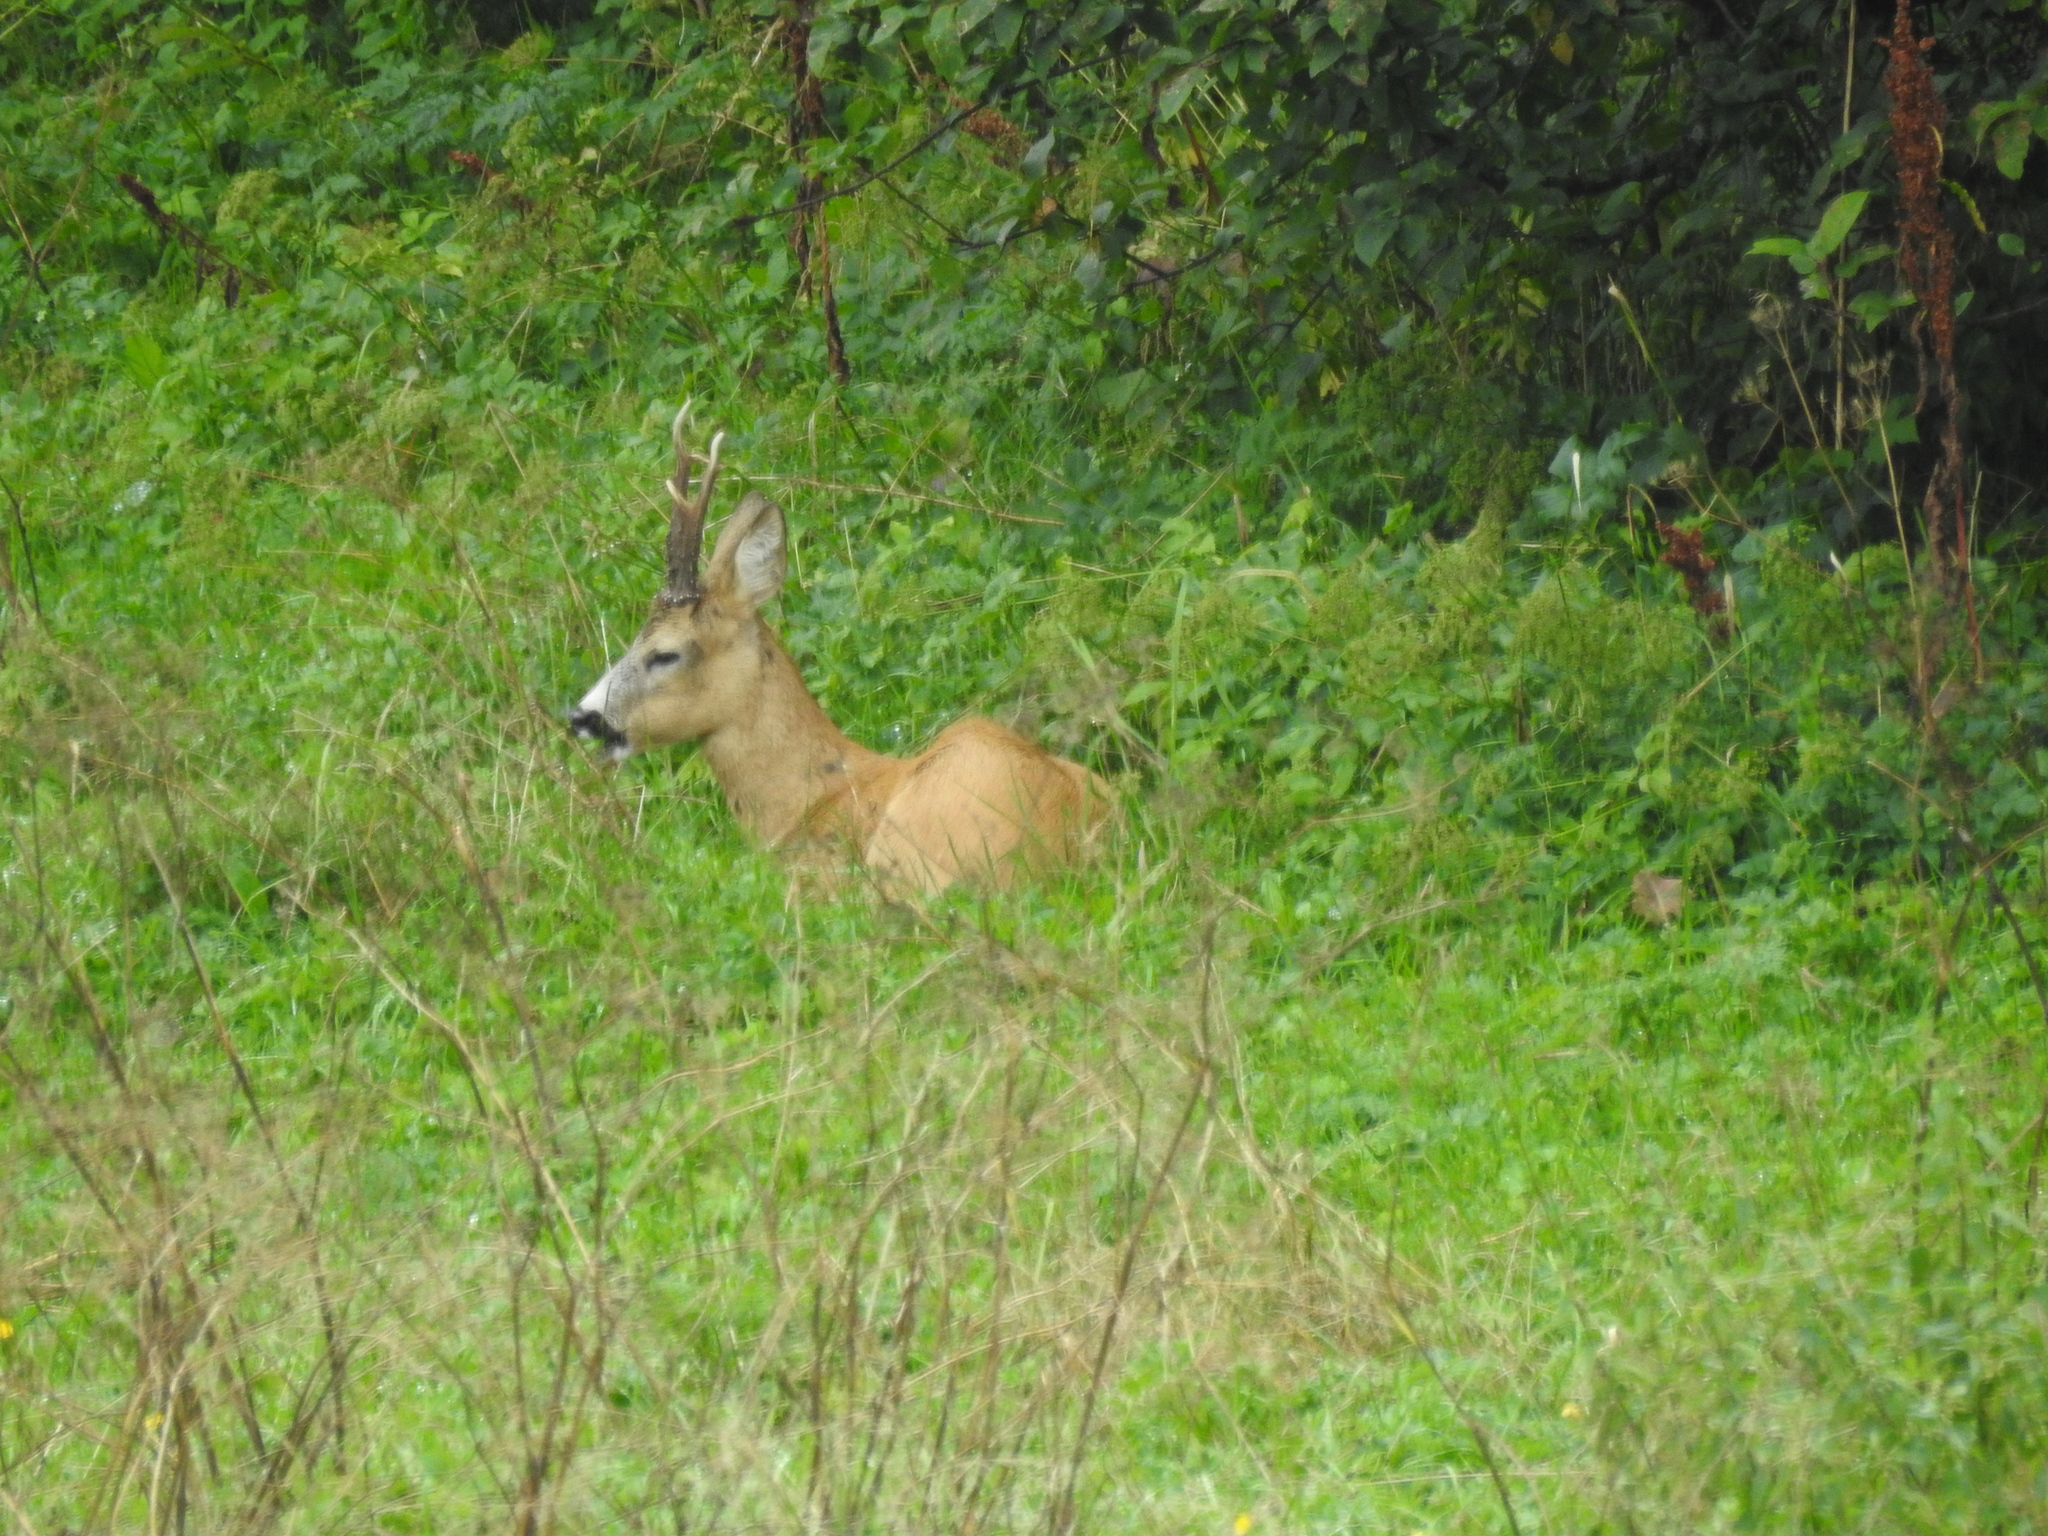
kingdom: Animalia
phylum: Chordata
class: Mammalia
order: Artiodactyla
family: Cervidae
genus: Capreolus
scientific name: Capreolus capreolus
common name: Western roe deer
